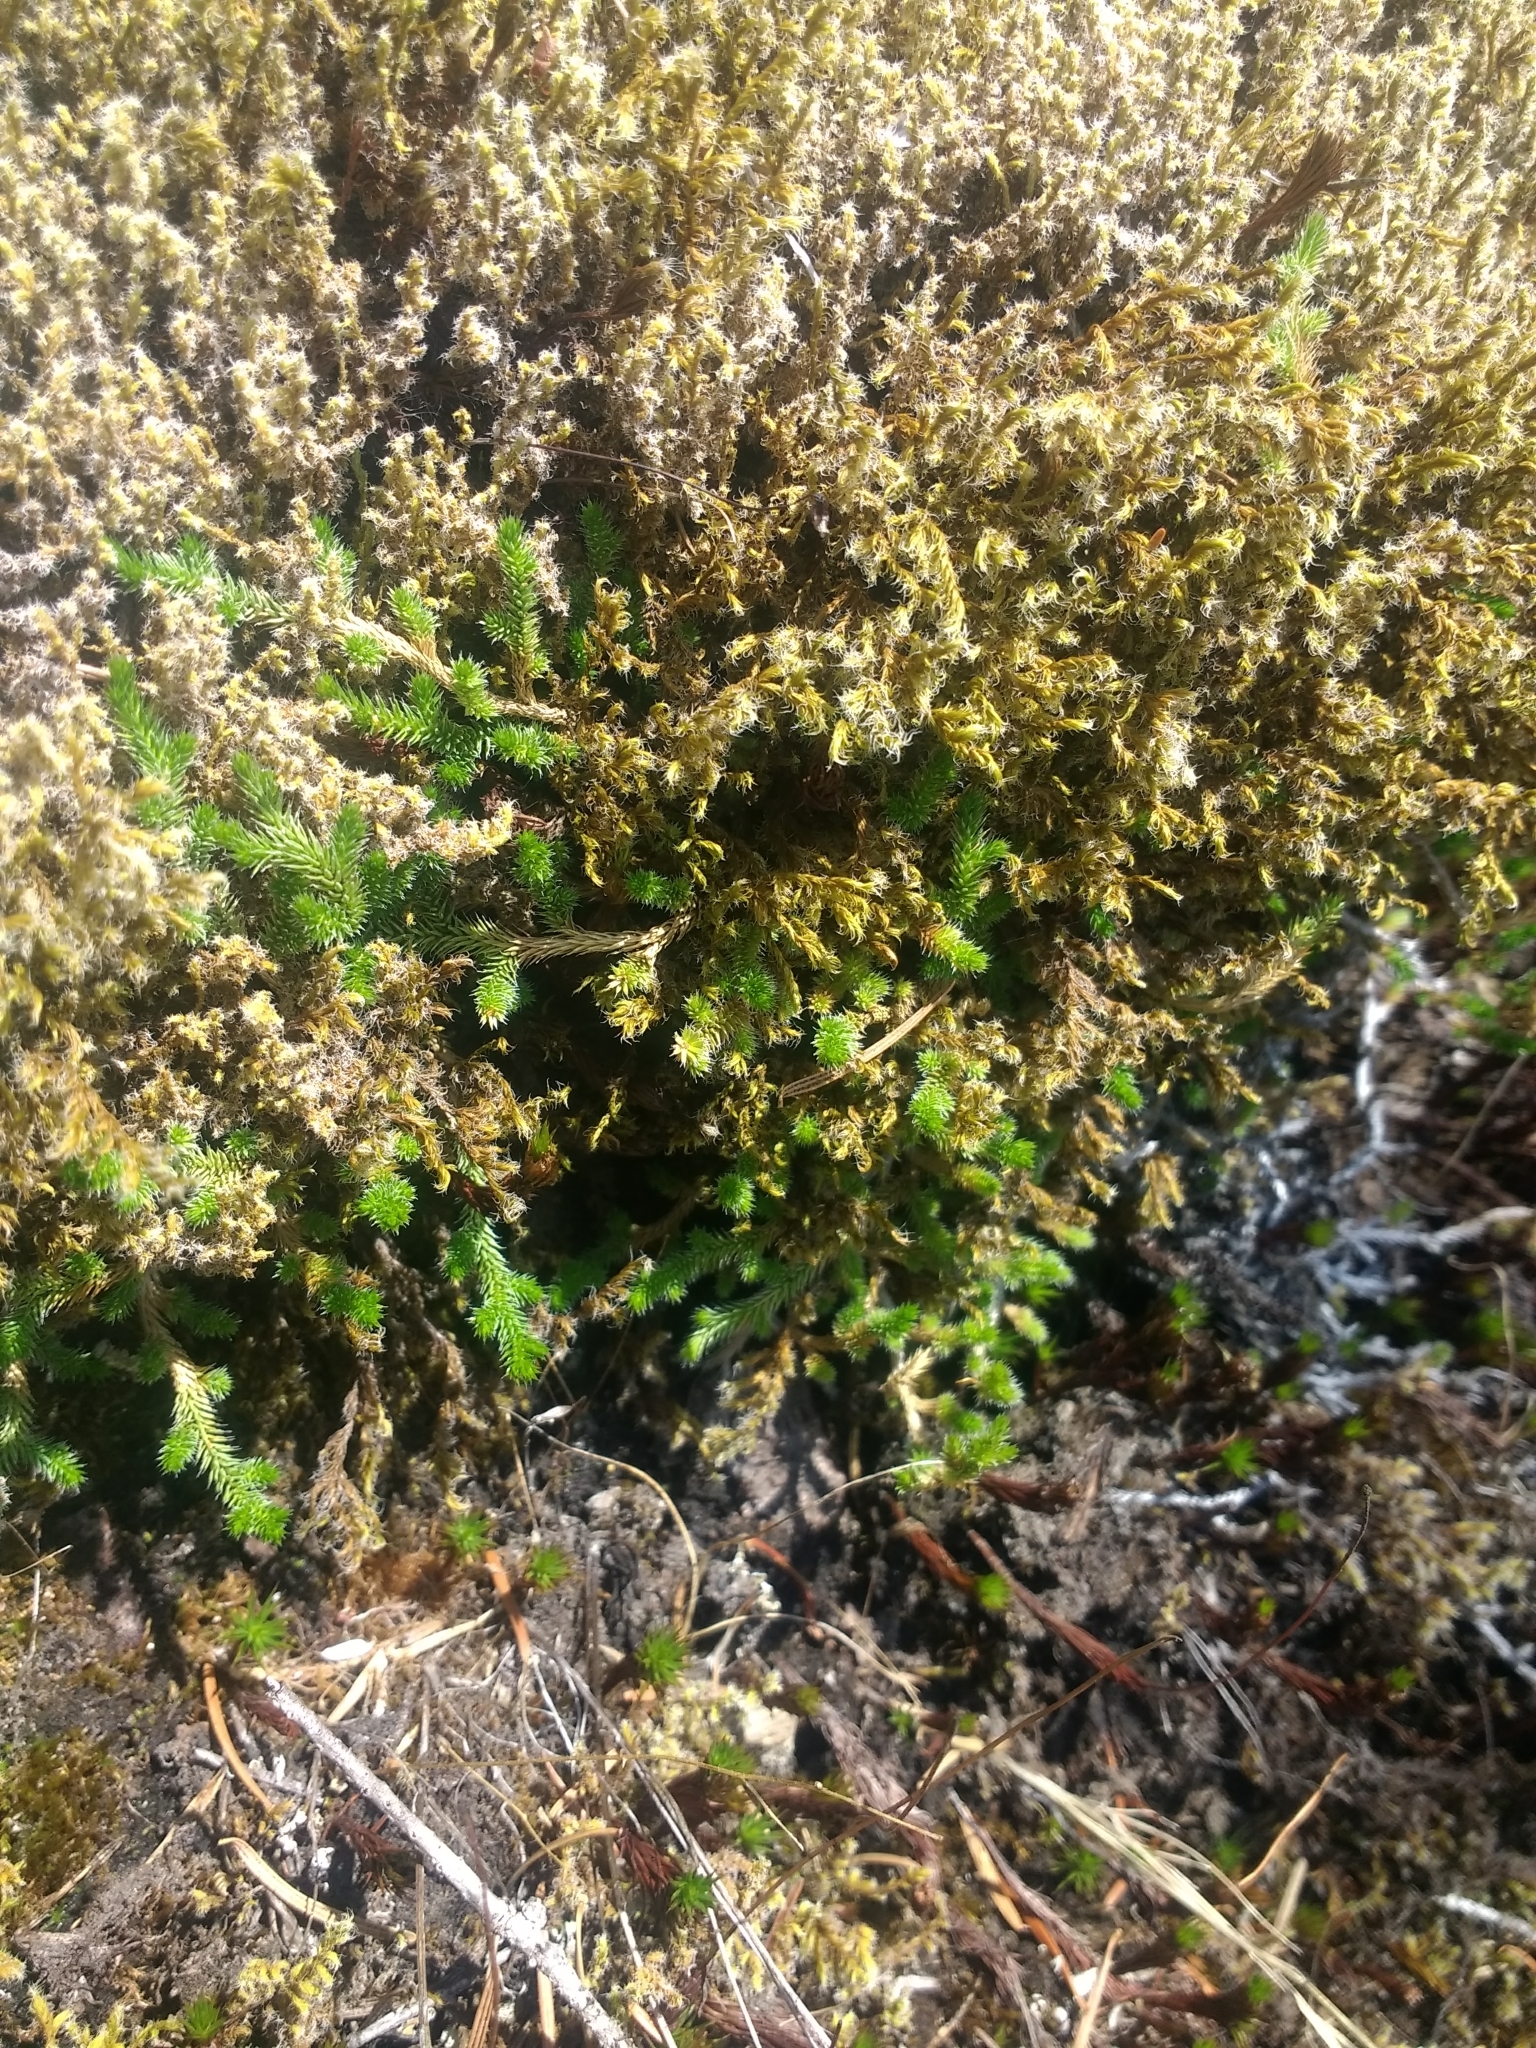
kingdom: Plantae
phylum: Tracheophyta
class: Lycopodiopsida
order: Selaginellales
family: Selaginellaceae
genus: Selaginella
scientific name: Selaginella wallacei
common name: Wallace's selaginella
